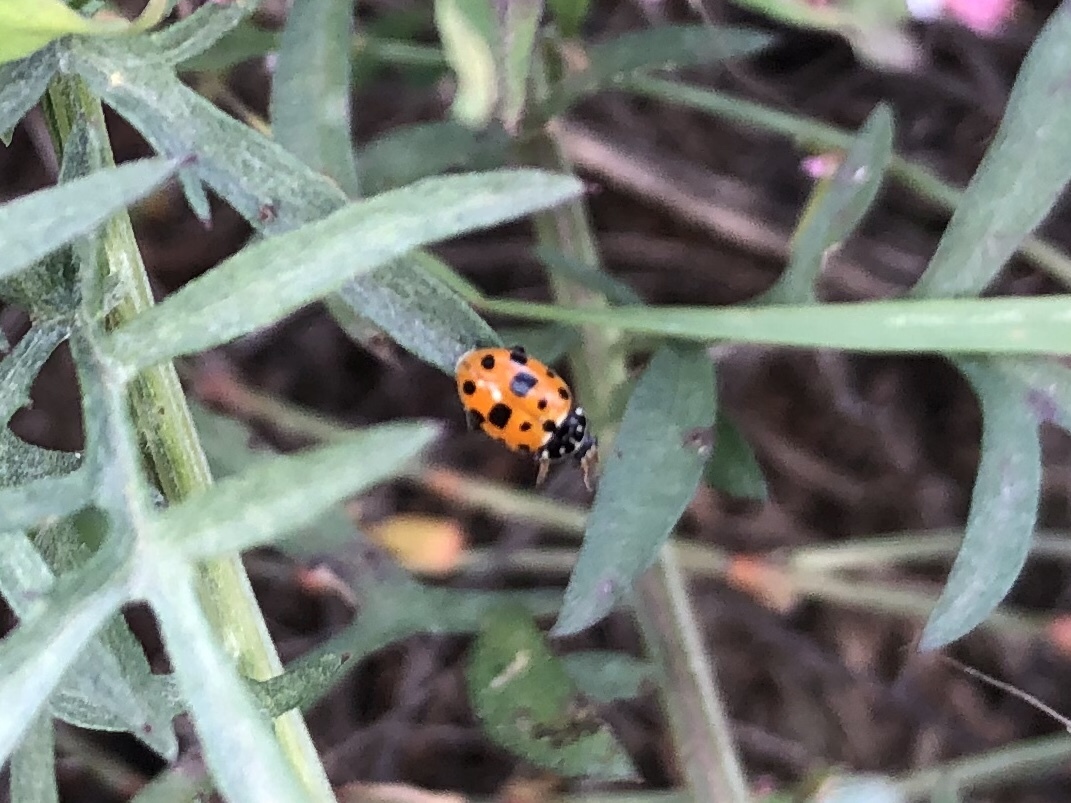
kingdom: Animalia
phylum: Arthropoda
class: Insecta
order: Coleoptera
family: Coccinellidae
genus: Hippodamia
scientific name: Hippodamia variegata
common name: Ladybird beetle
